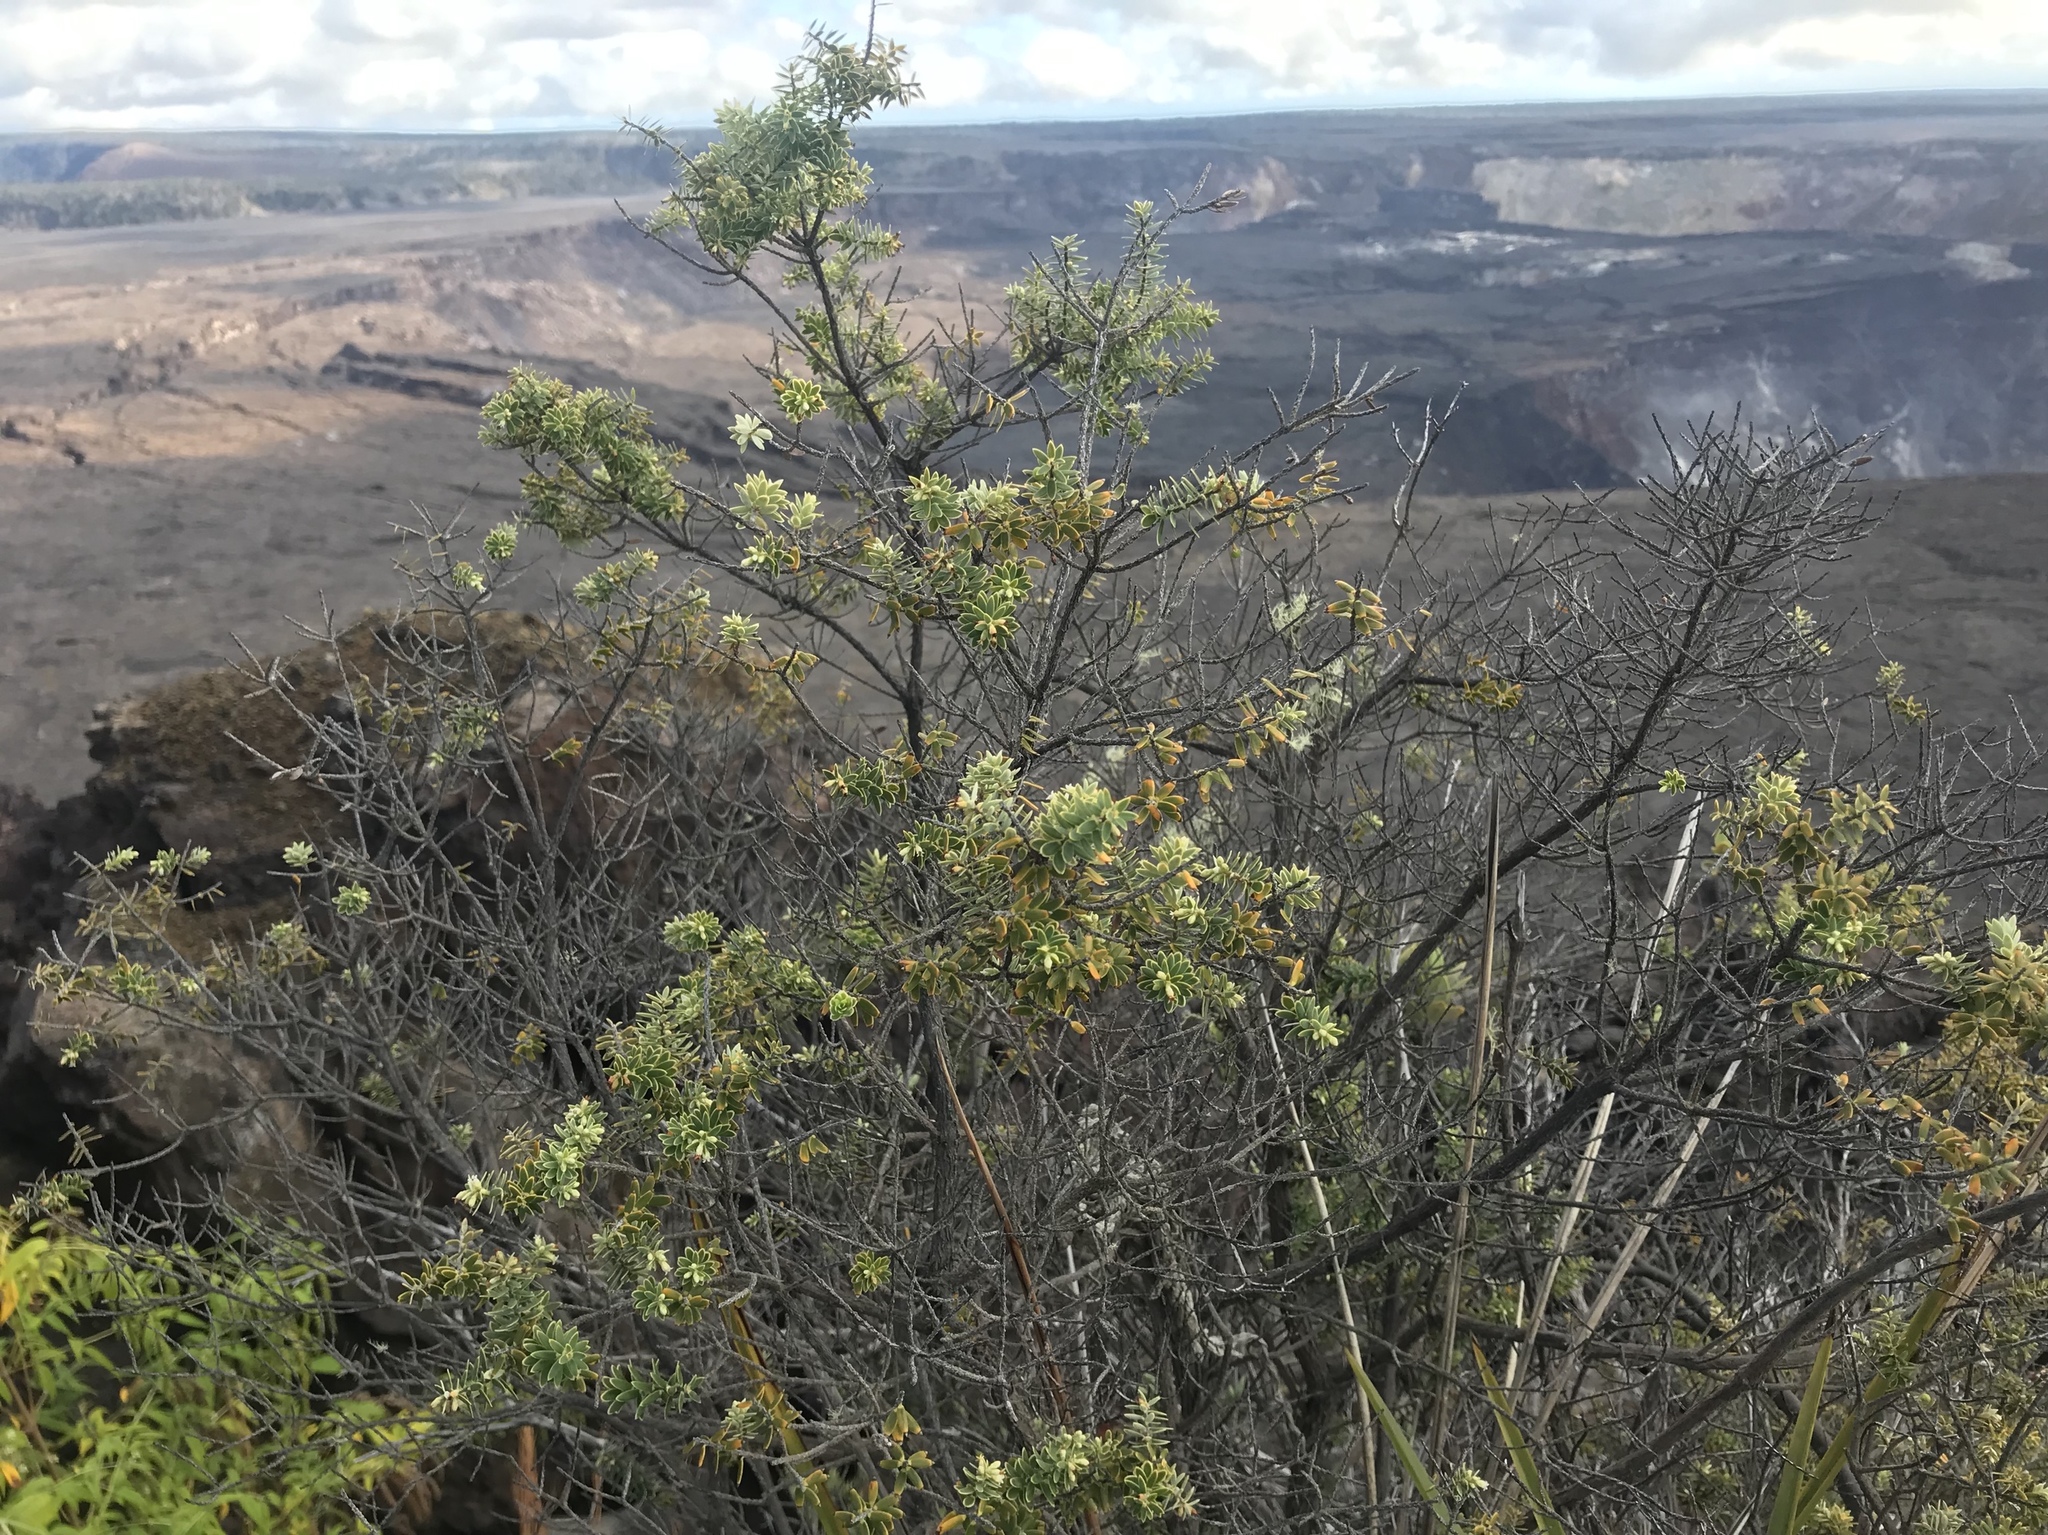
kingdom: Plantae
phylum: Tracheophyta
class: Magnoliopsida
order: Ericales
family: Ericaceae
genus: Leptecophylla
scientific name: Leptecophylla tameiameiae
